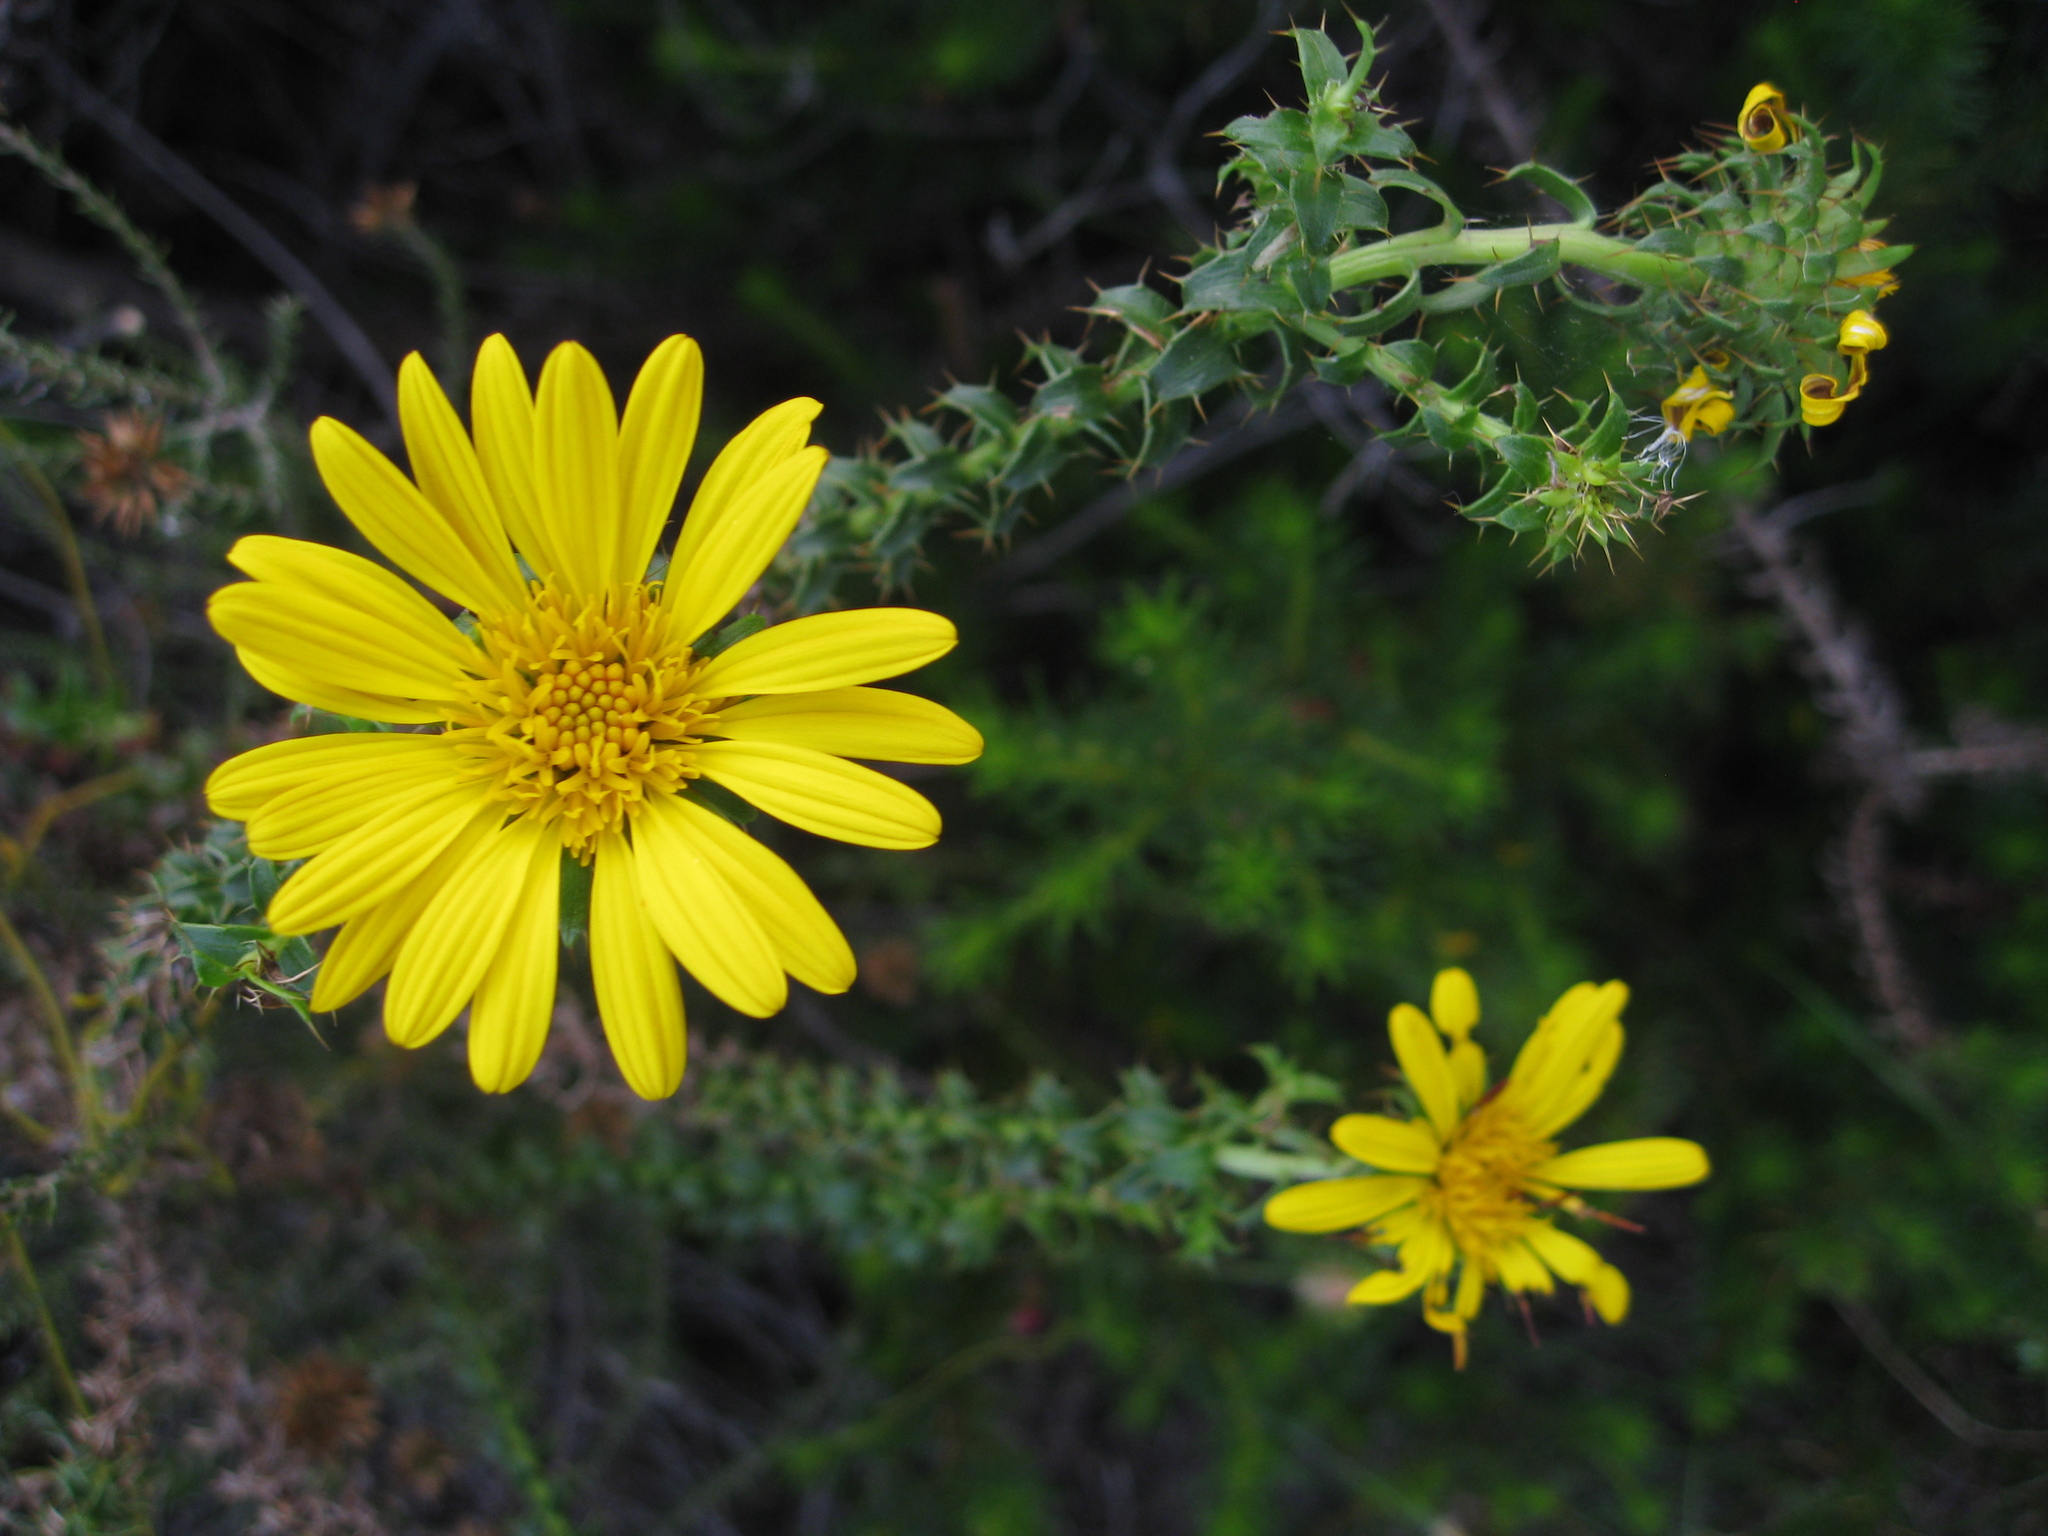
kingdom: Plantae
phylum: Tracheophyta
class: Magnoliopsida
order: Asterales
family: Asteraceae
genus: Cullumia
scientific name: Cullumia setosa
